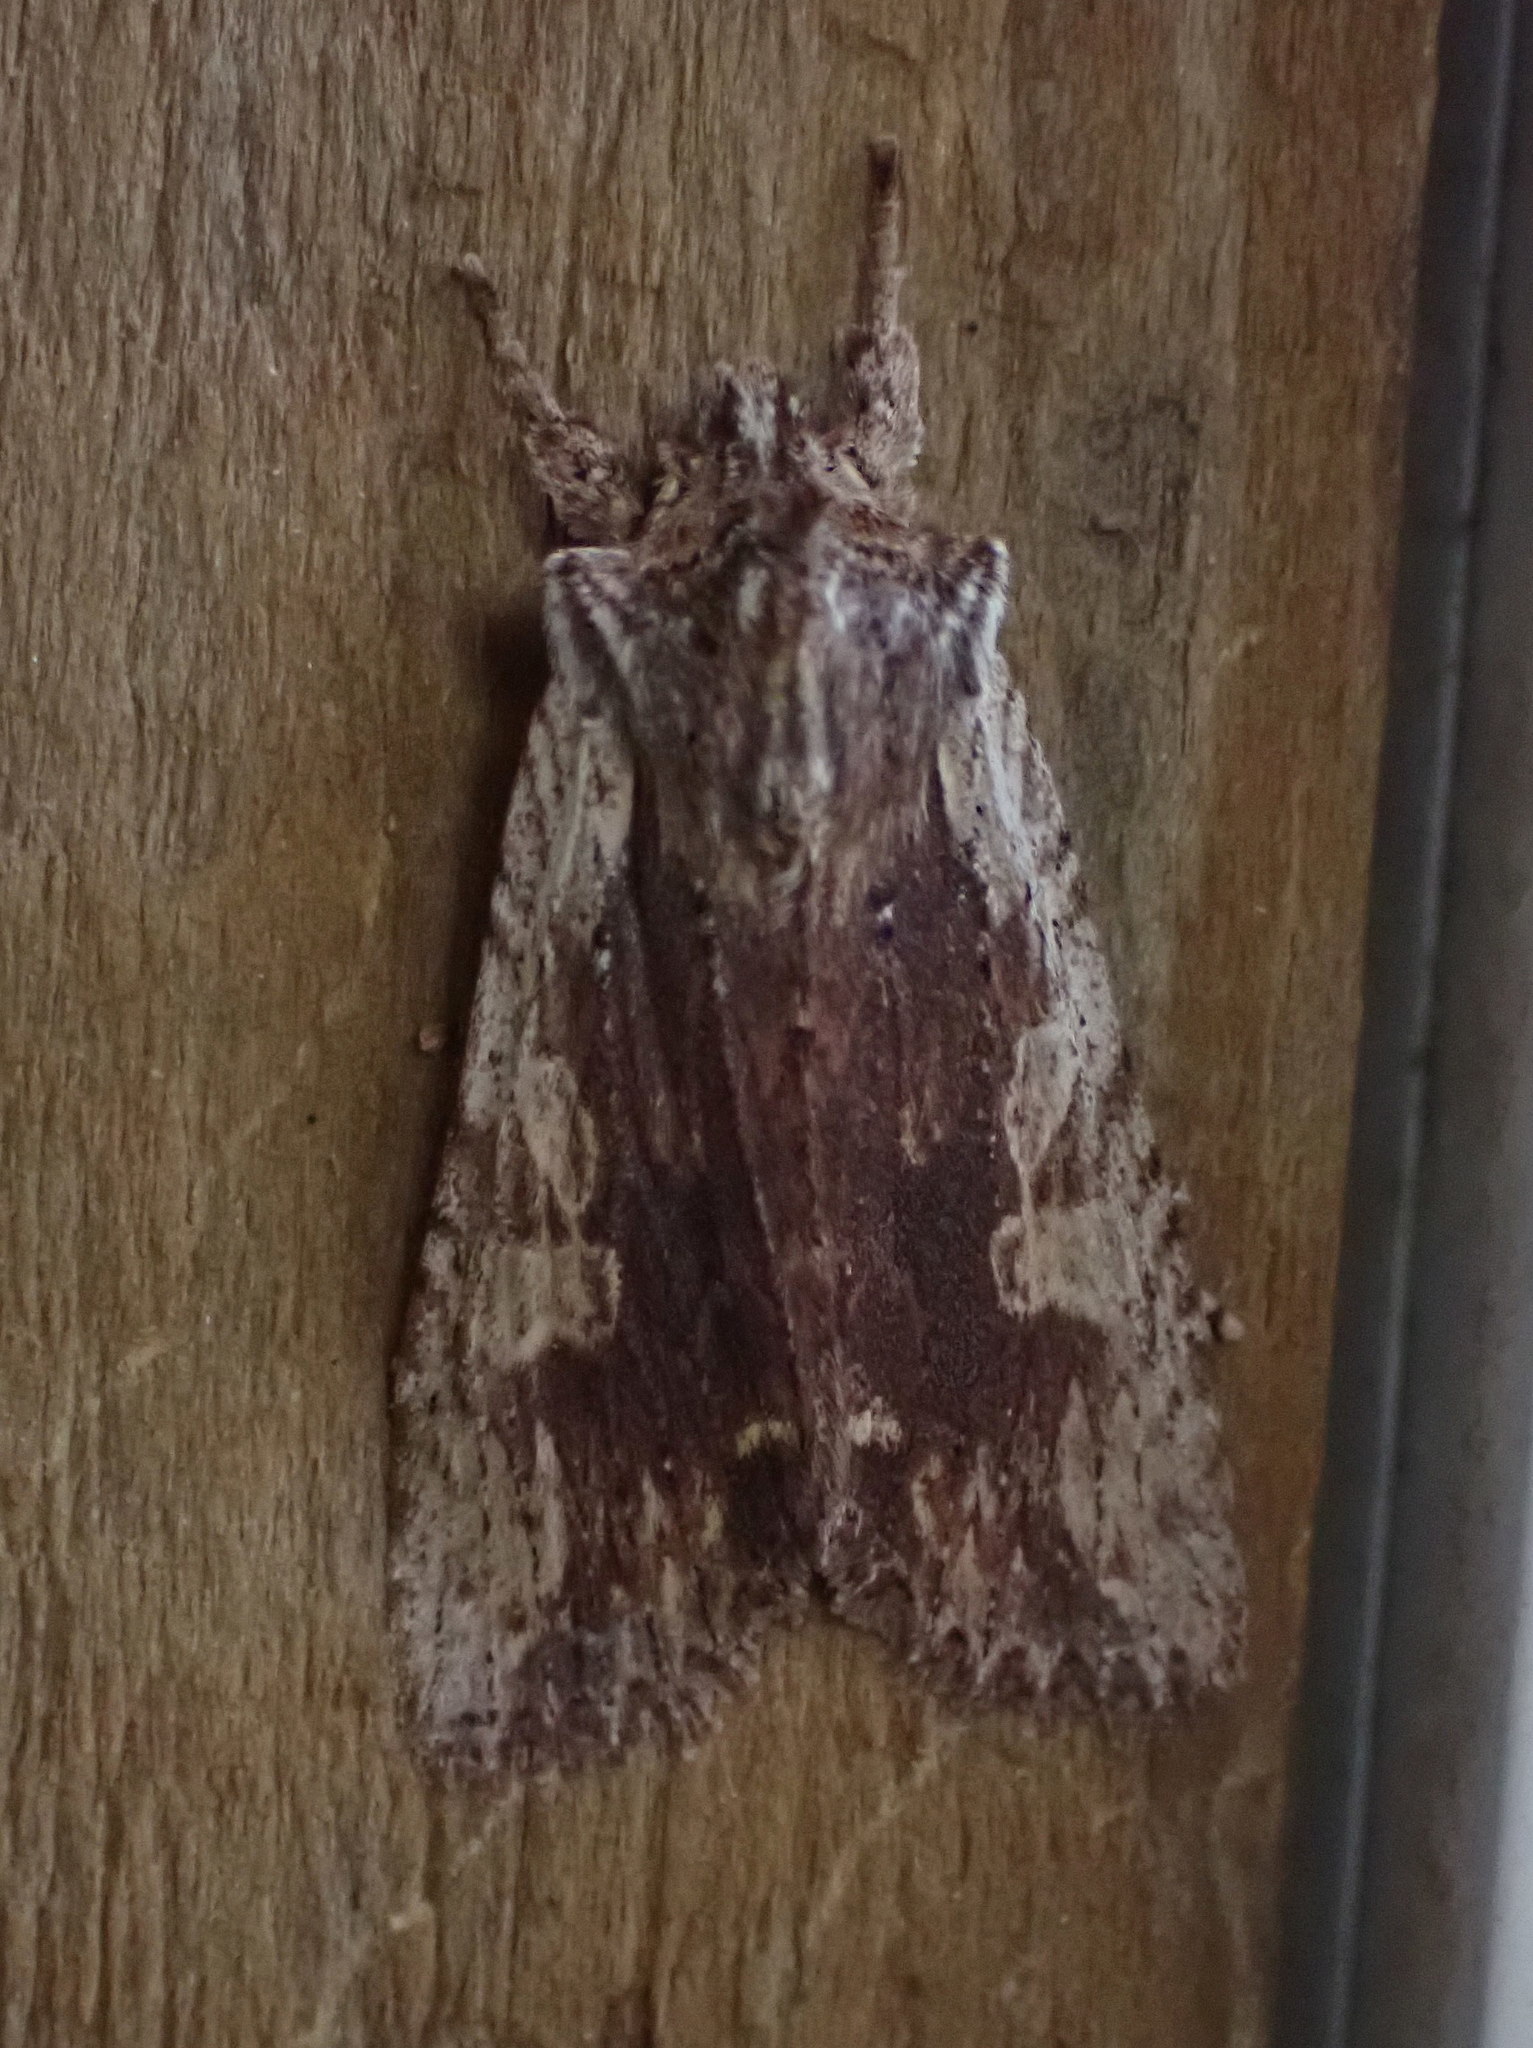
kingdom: Animalia
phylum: Arthropoda
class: Insecta
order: Lepidoptera
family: Noctuidae
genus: Lithophane
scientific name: Lithophane petulca
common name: Wanton pinion
